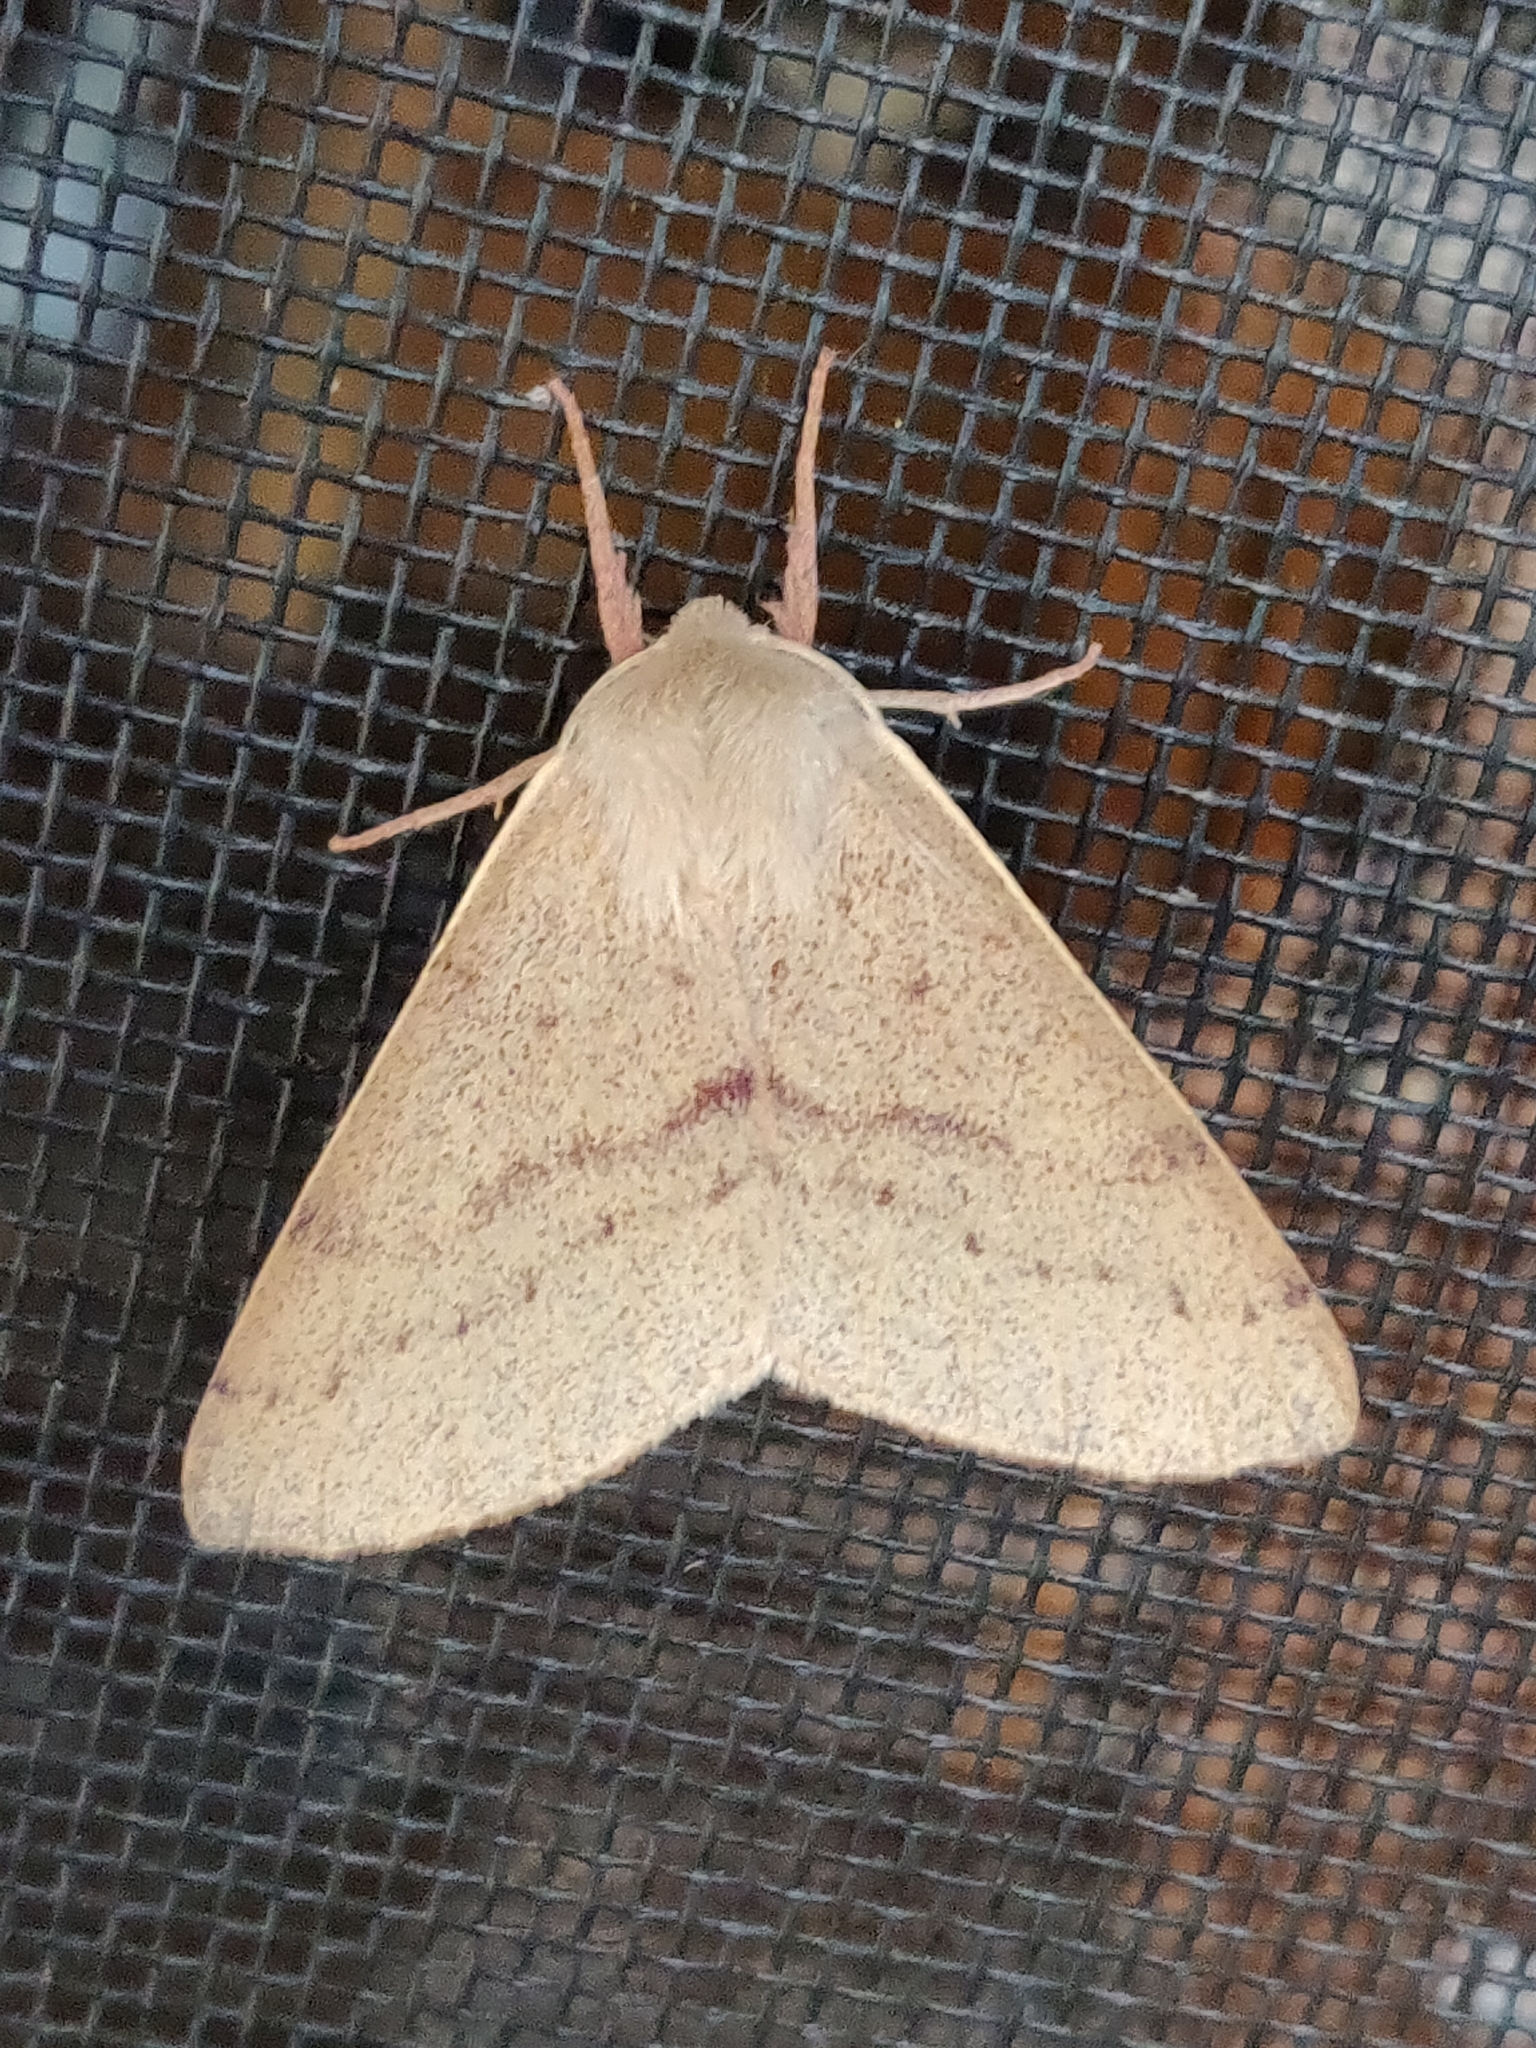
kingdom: Animalia
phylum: Arthropoda
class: Insecta
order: Lepidoptera
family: Geometridae
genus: Arhodia
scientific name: Arhodia lasiocamparia
